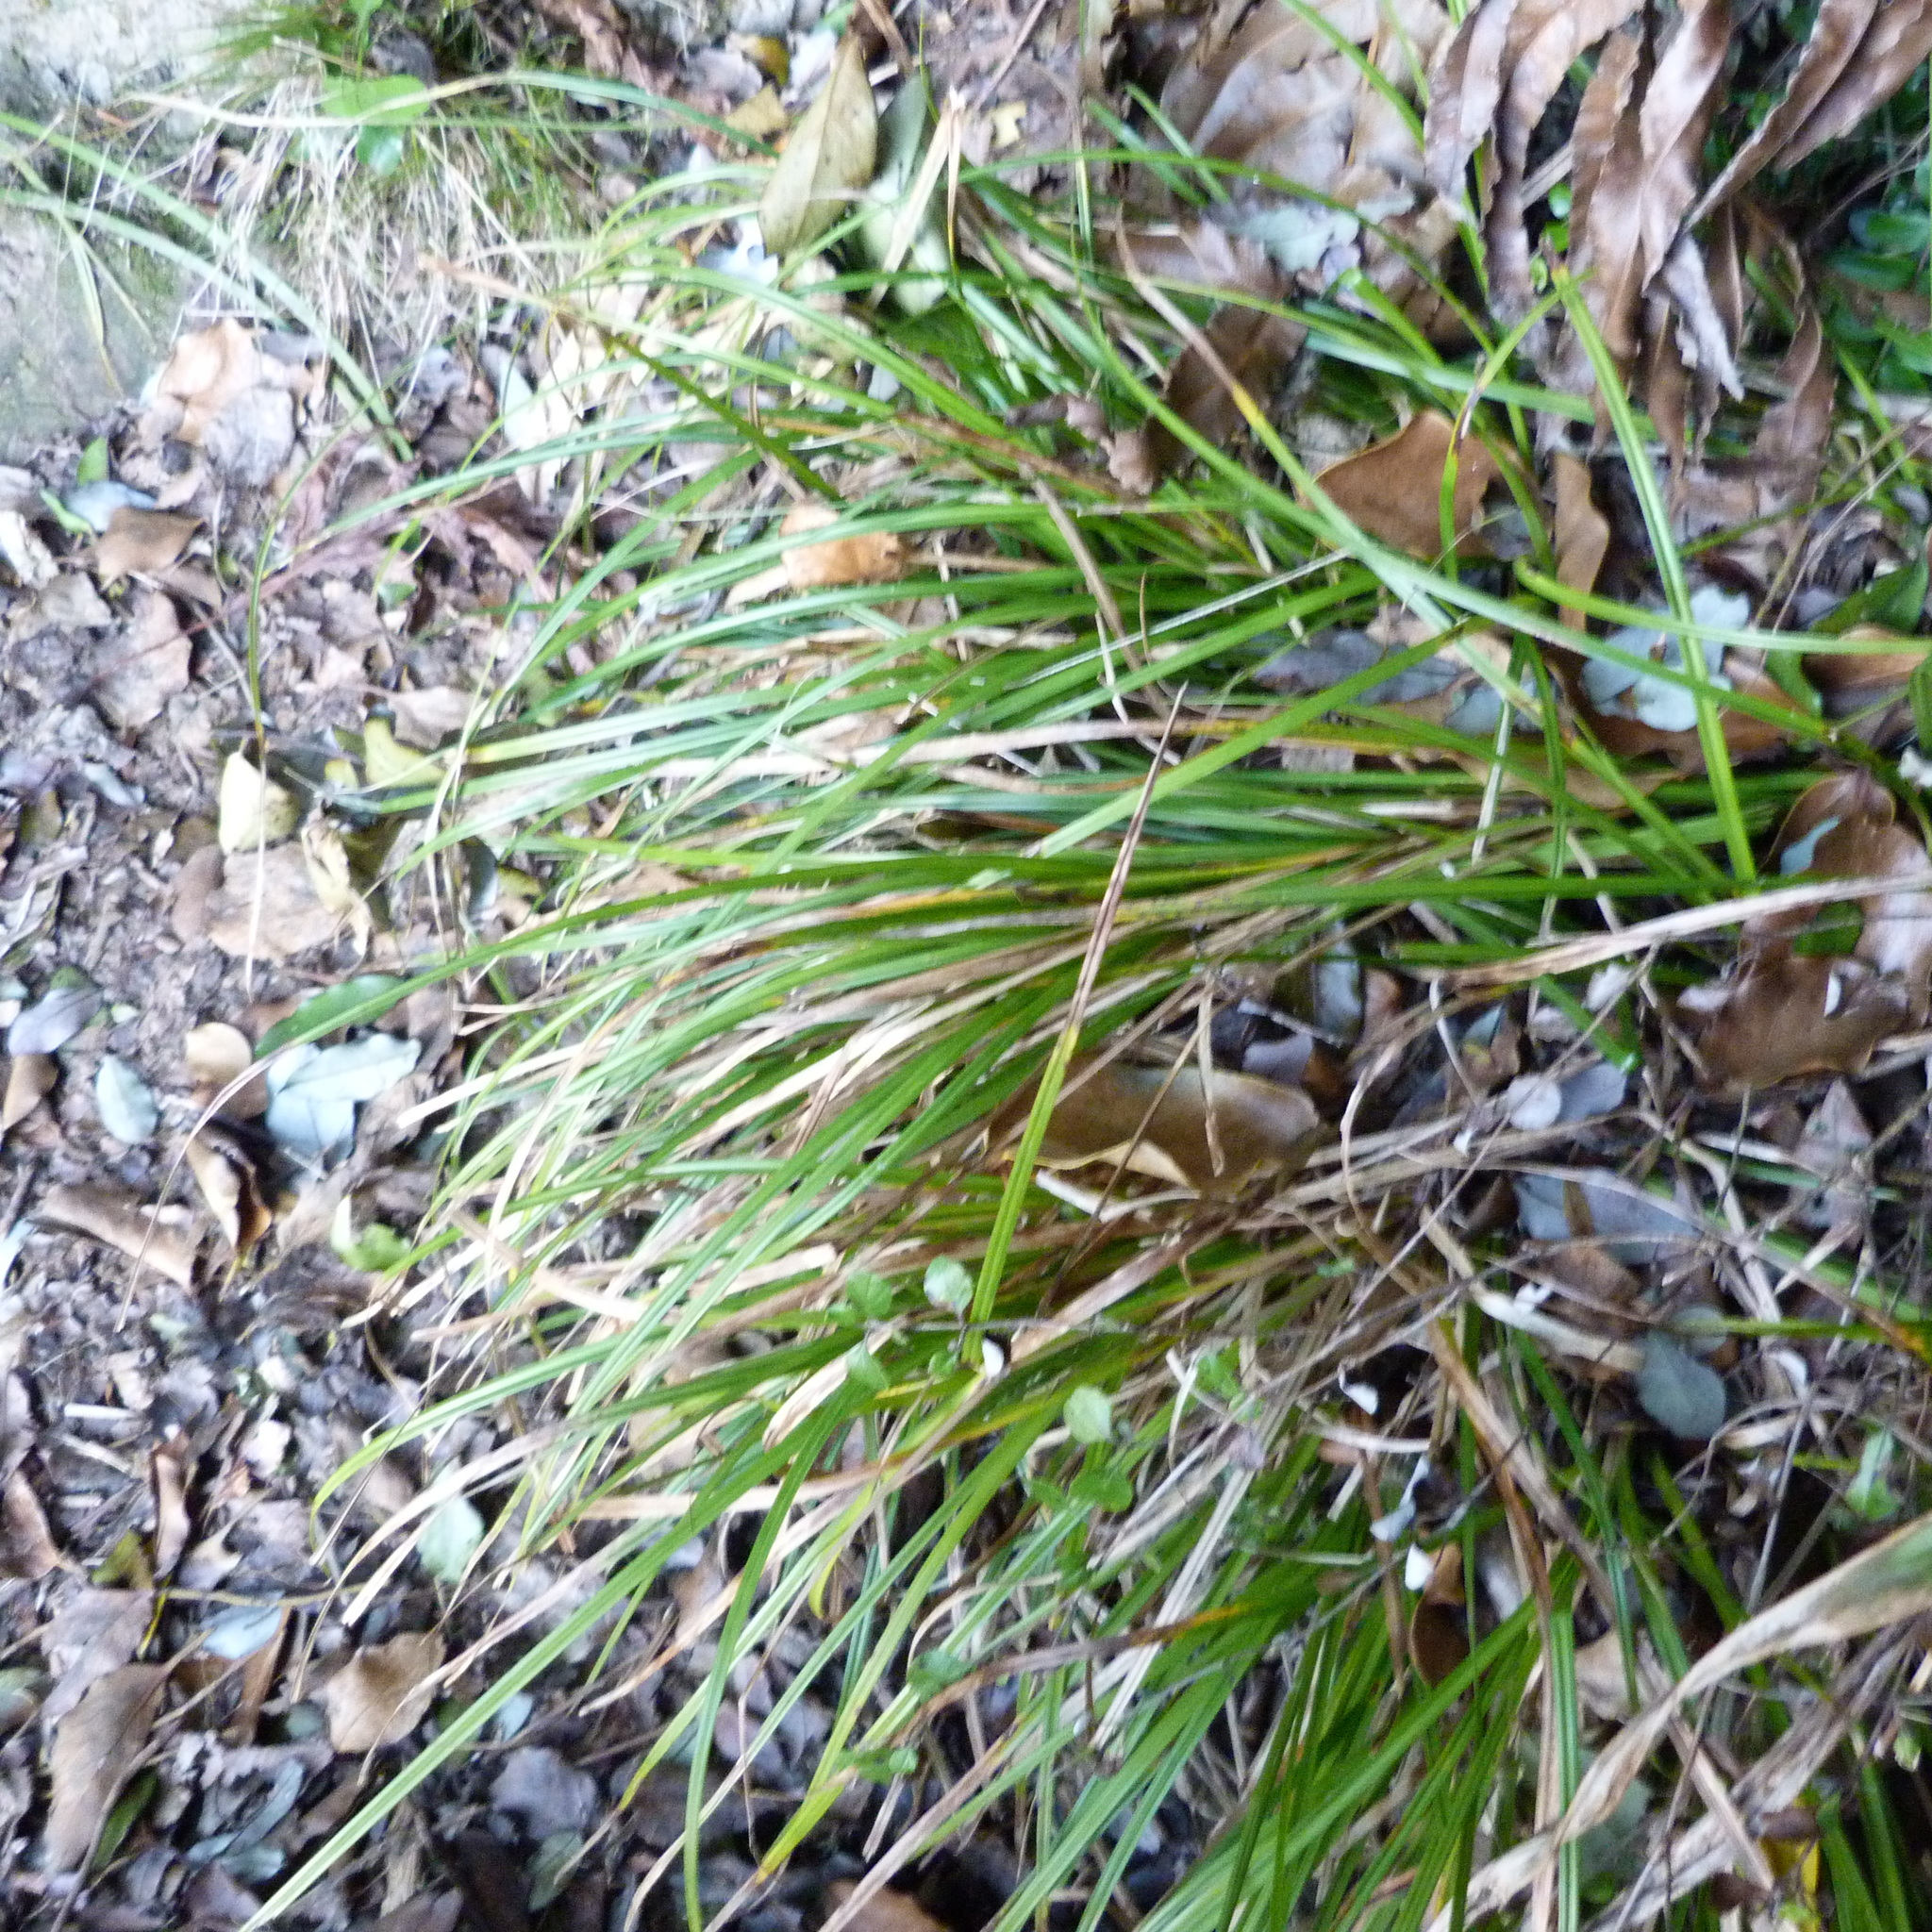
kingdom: Plantae
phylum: Tracheophyta
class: Liliopsida
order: Poales
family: Cyperaceae
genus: Carex
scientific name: Carex uncinata
